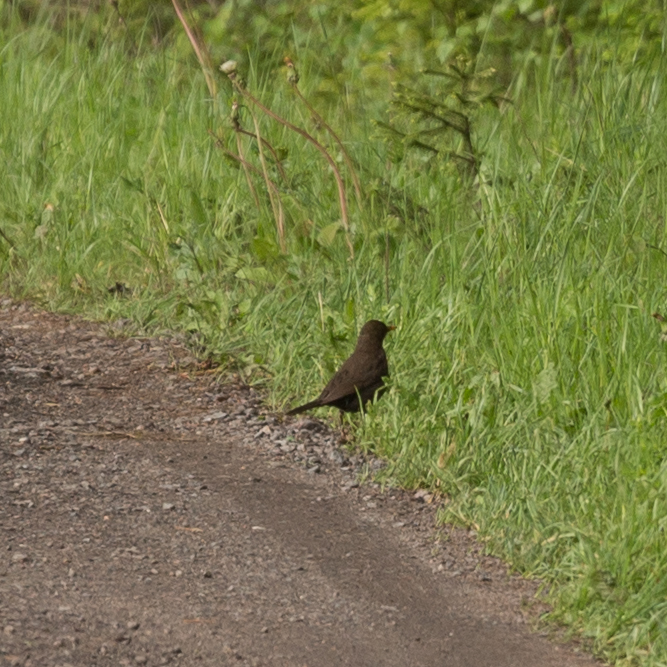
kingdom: Animalia
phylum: Chordata
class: Aves
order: Passeriformes
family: Turdidae
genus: Turdus
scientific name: Turdus merula
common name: Common blackbird
